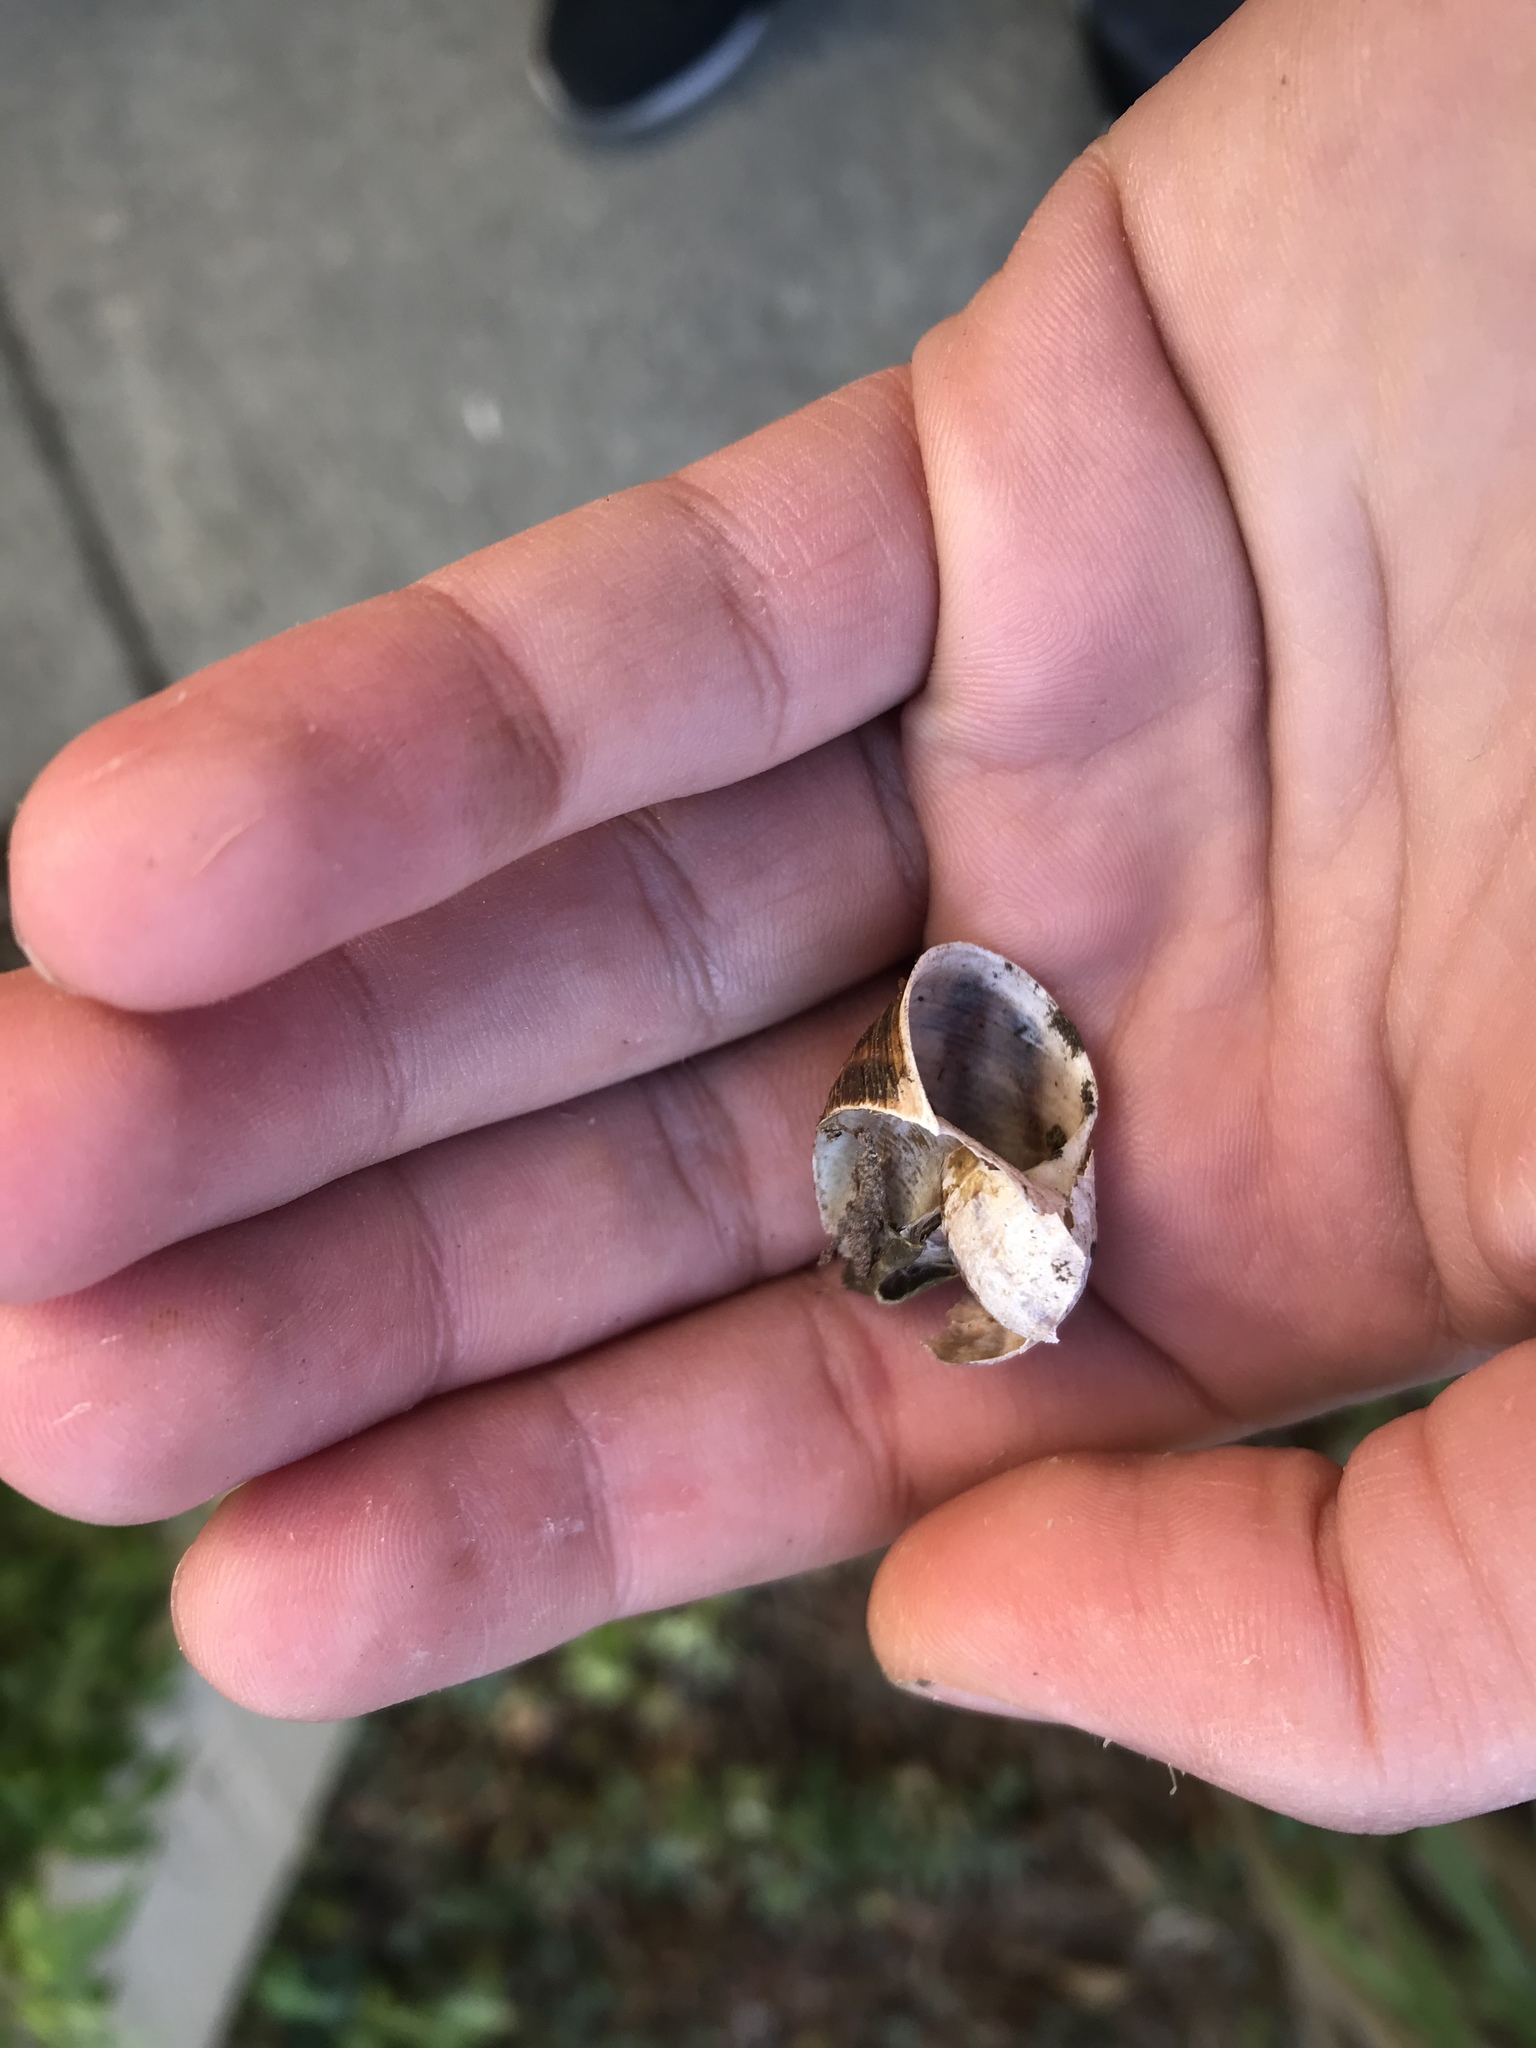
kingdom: Animalia
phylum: Mollusca
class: Gastropoda
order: Stylommatophora
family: Helicidae
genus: Cornu
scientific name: Cornu aspersum
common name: Brown garden snail
